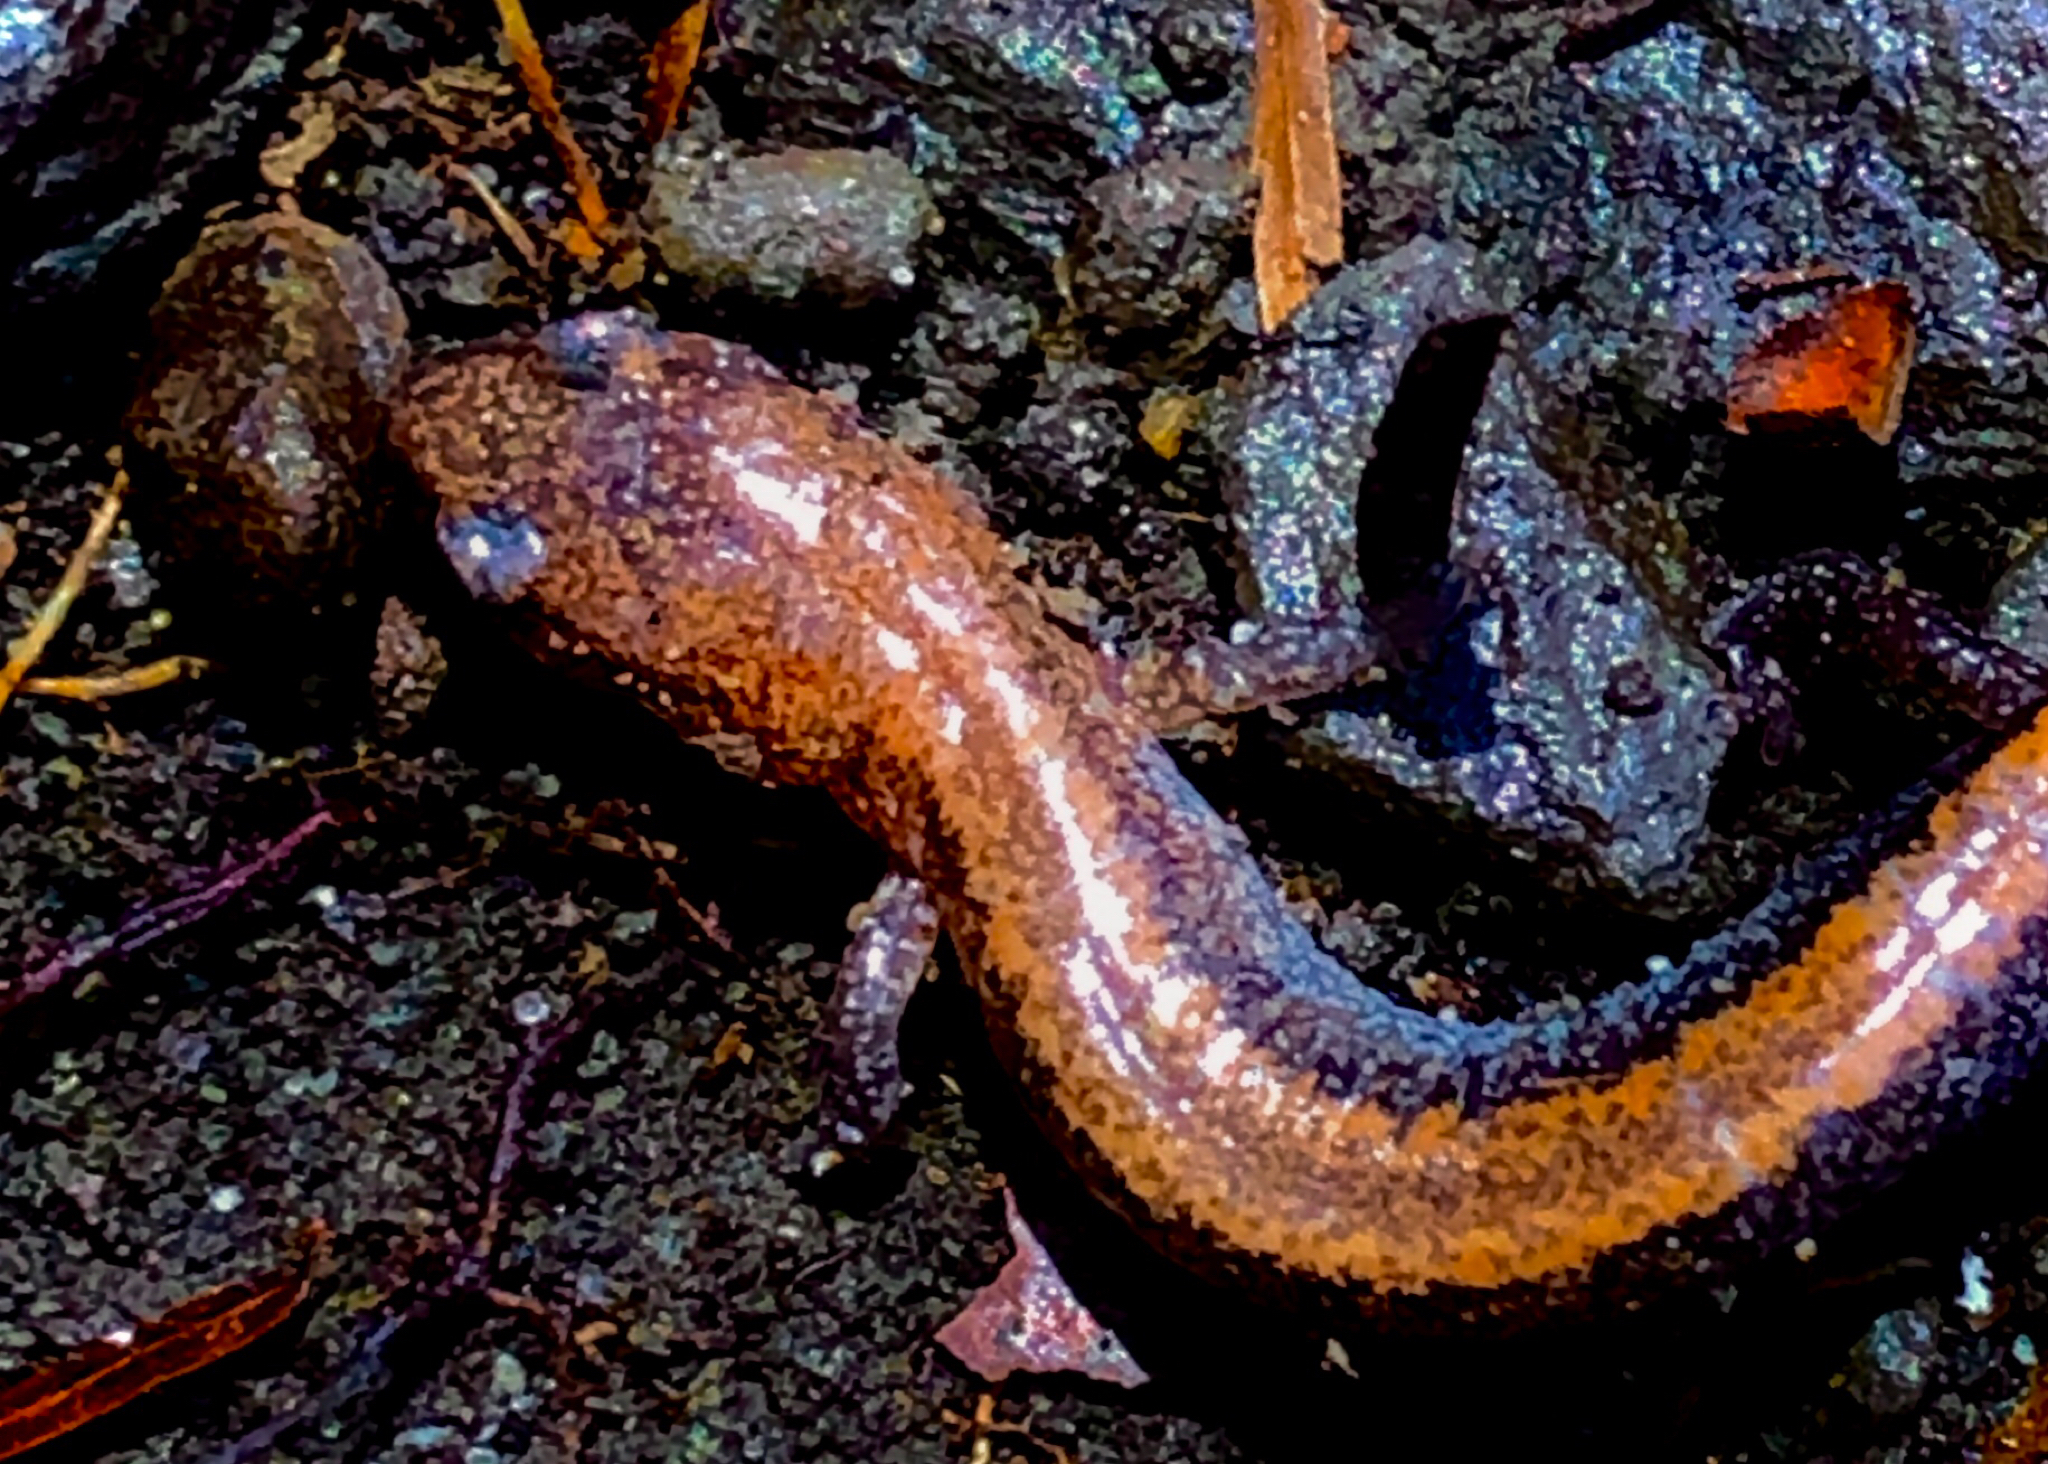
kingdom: Animalia
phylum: Chordata
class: Amphibia
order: Caudata
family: Plethodontidae
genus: Plethodon
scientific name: Plethodon cinereus
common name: Redback salamander
